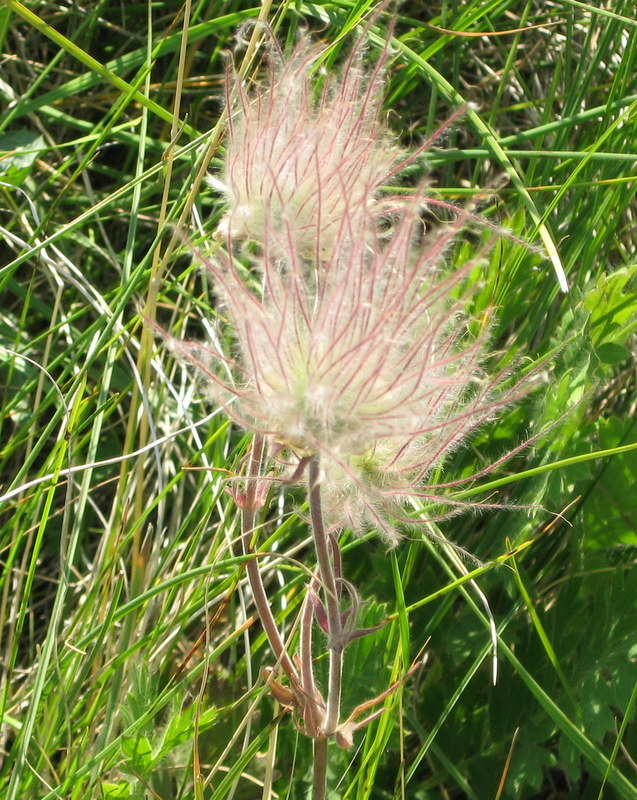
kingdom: Plantae
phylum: Tracheophyta
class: Magnoliopsida
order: Rosales
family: Rosaceae
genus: Geum
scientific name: Geum triflorum
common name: Old man's whiskers
